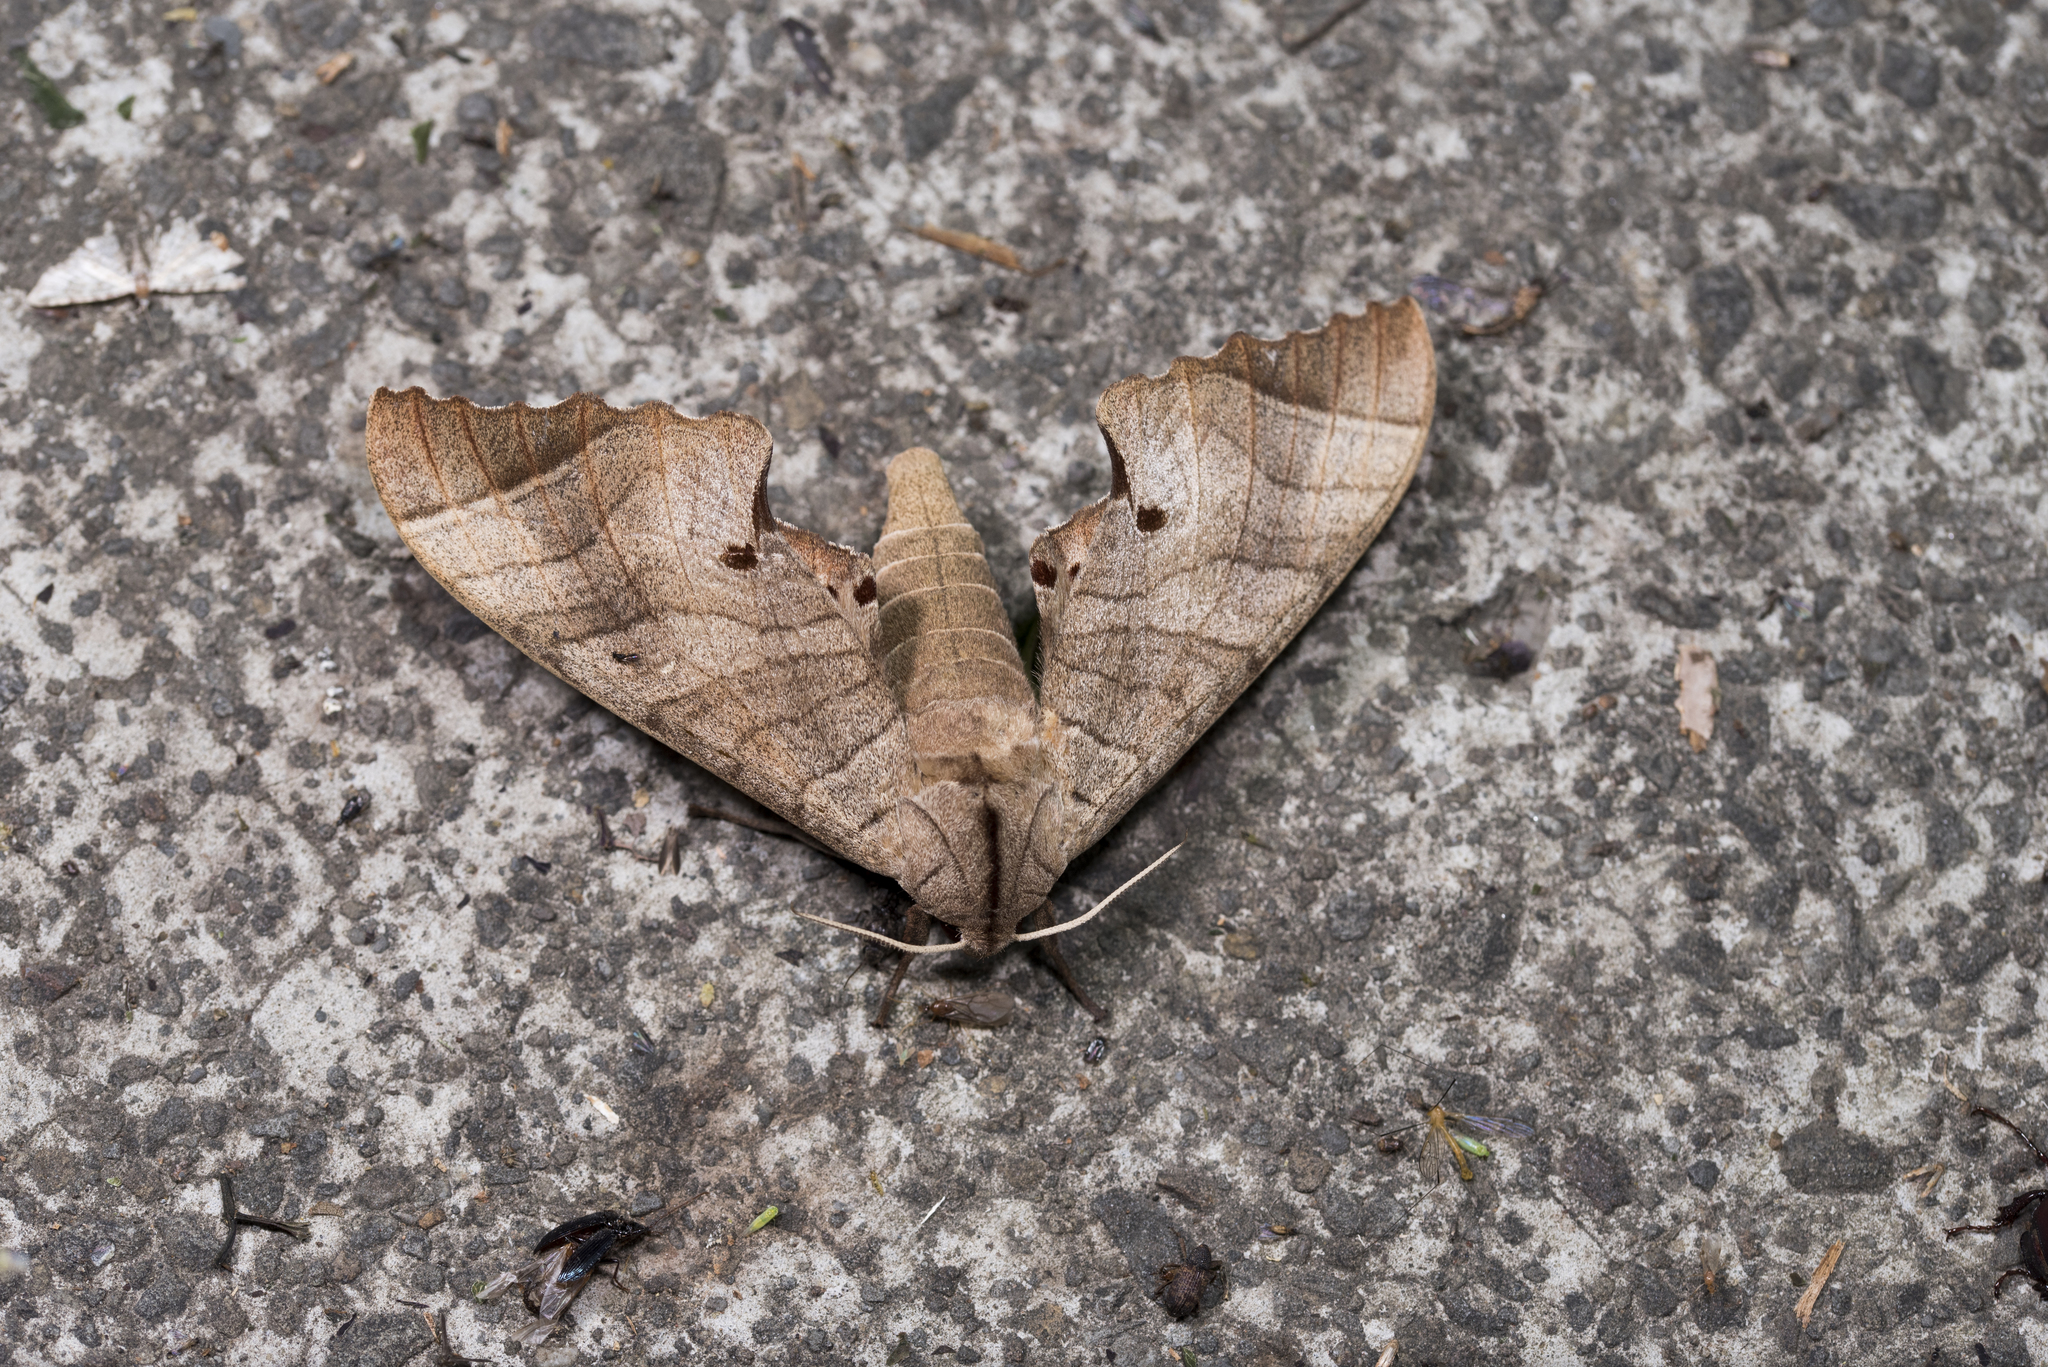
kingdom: Animalia
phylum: Arthropoda
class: Insecta
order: Lepidoptera
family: Sphingidae
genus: Marumba
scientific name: Marumba dyras
